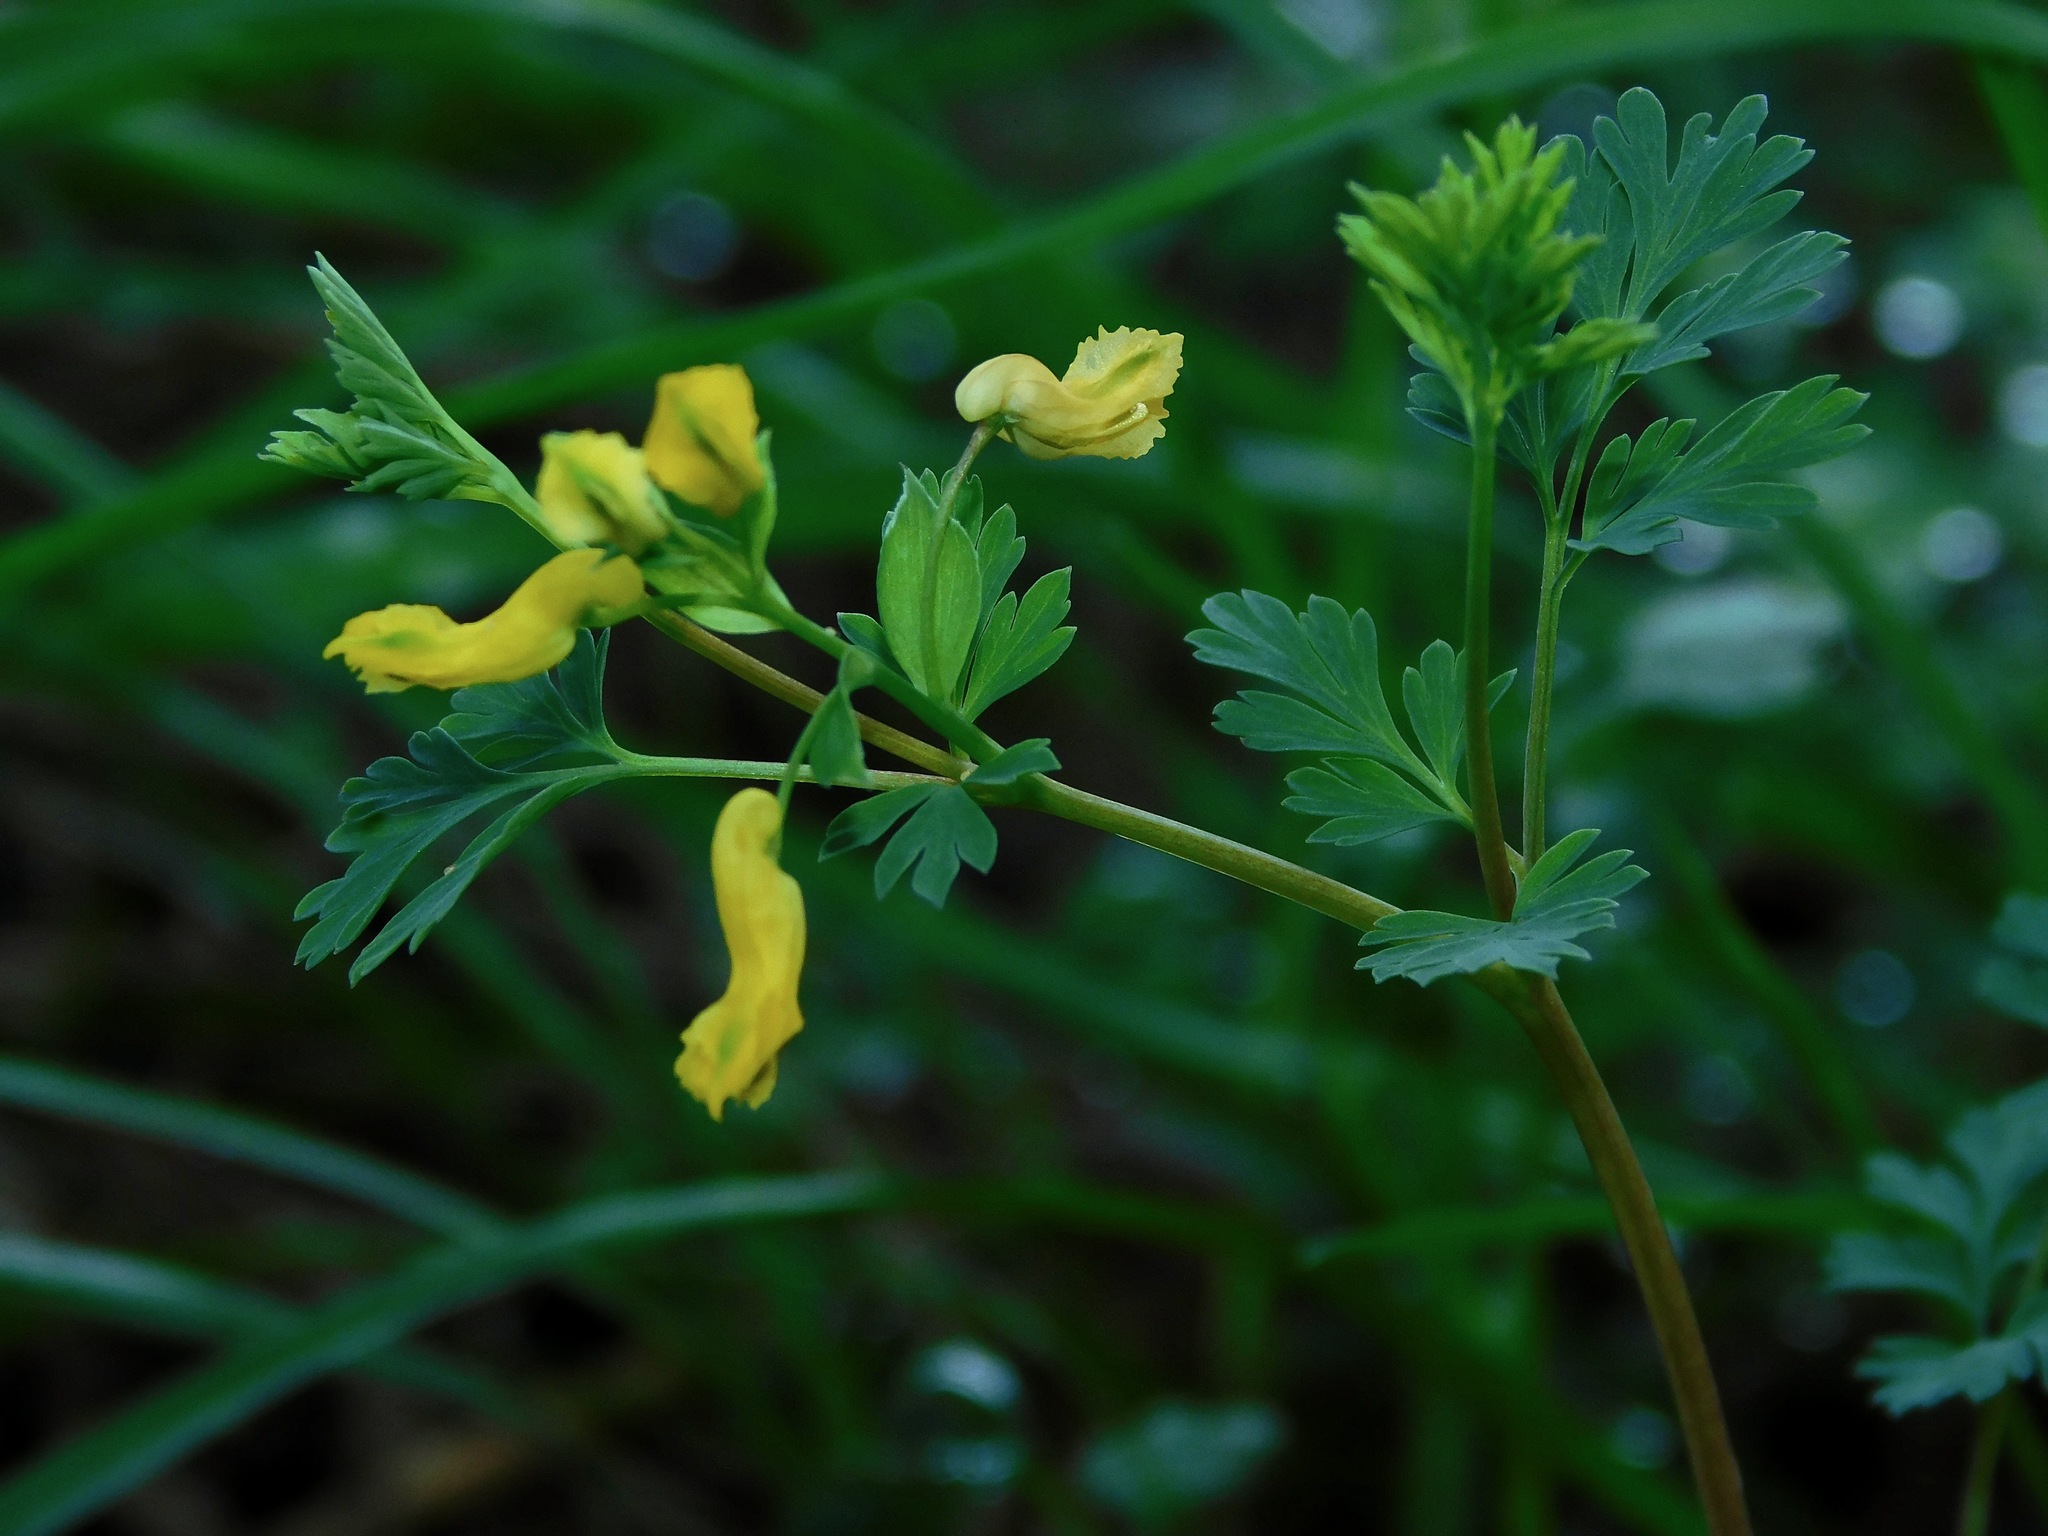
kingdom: Plantae
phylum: Tracheophyta
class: Magnoliopsida
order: Ranunculales
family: Papaveraceae
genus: Corydalis
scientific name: Corydalis flavula
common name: Yellow corydalis
